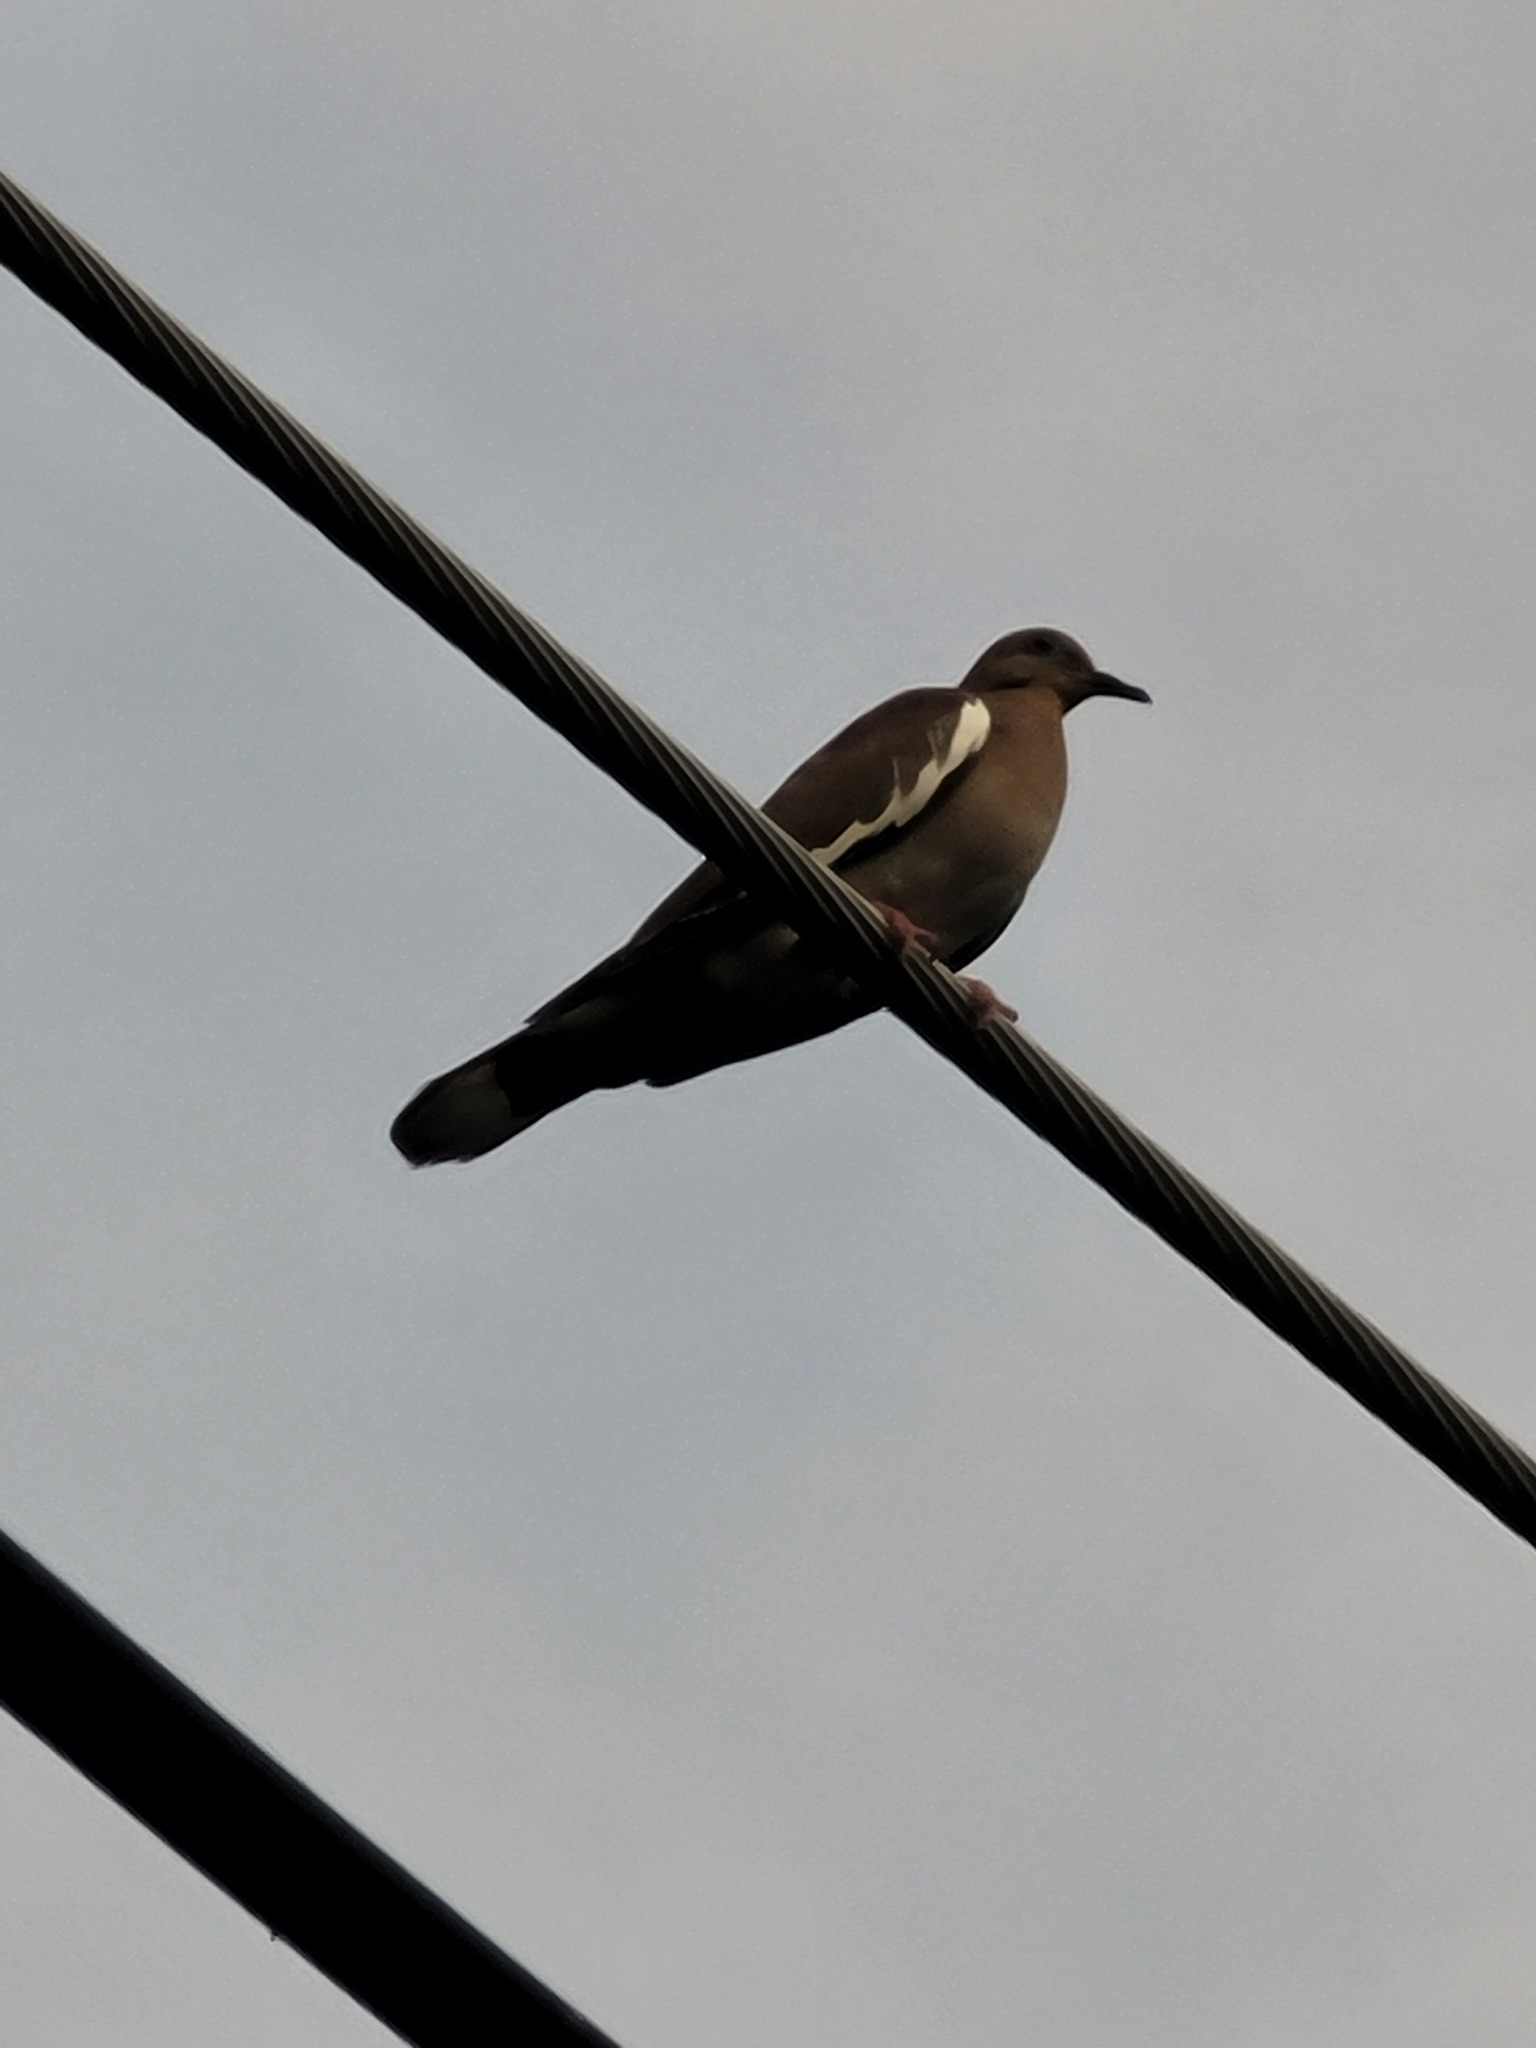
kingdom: Animalia
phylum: Chordata
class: Aves
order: Columbiformes
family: Columbidae
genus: Zenaida
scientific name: Zenaida asiatica
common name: White-winged dove
